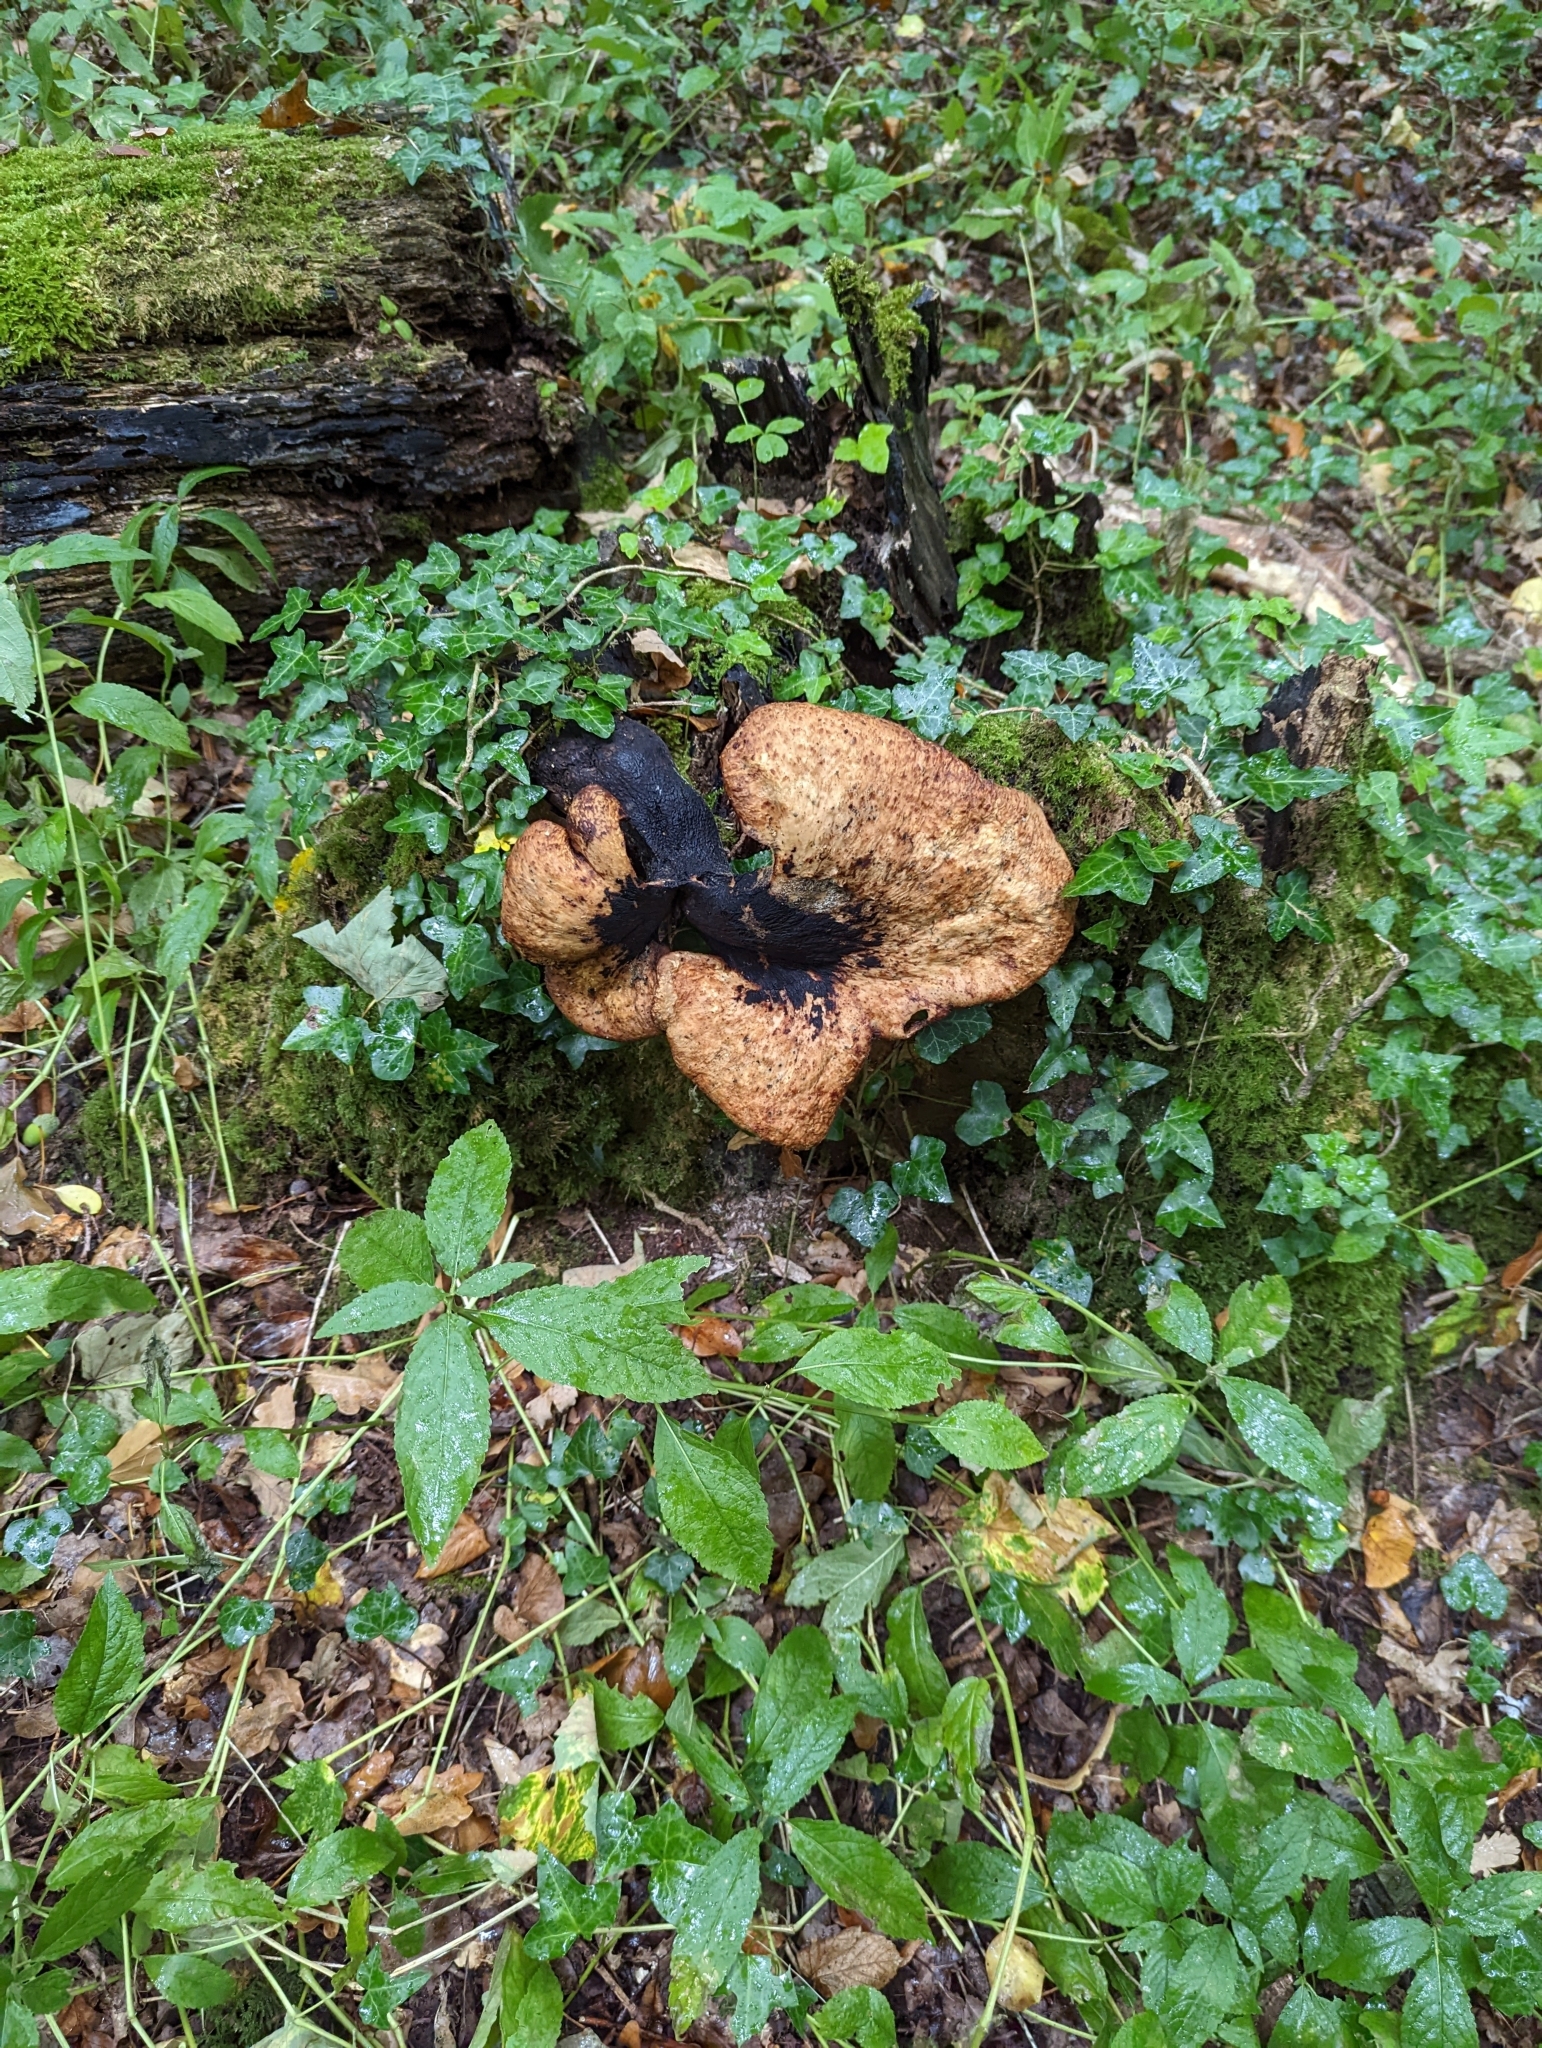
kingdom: Fungi
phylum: Basidiomycota
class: Agaricomycetes
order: Polyporales
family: Polyporaceae
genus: Cerioporus
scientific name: Cerioporus squamosus
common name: Dryad's saddle
